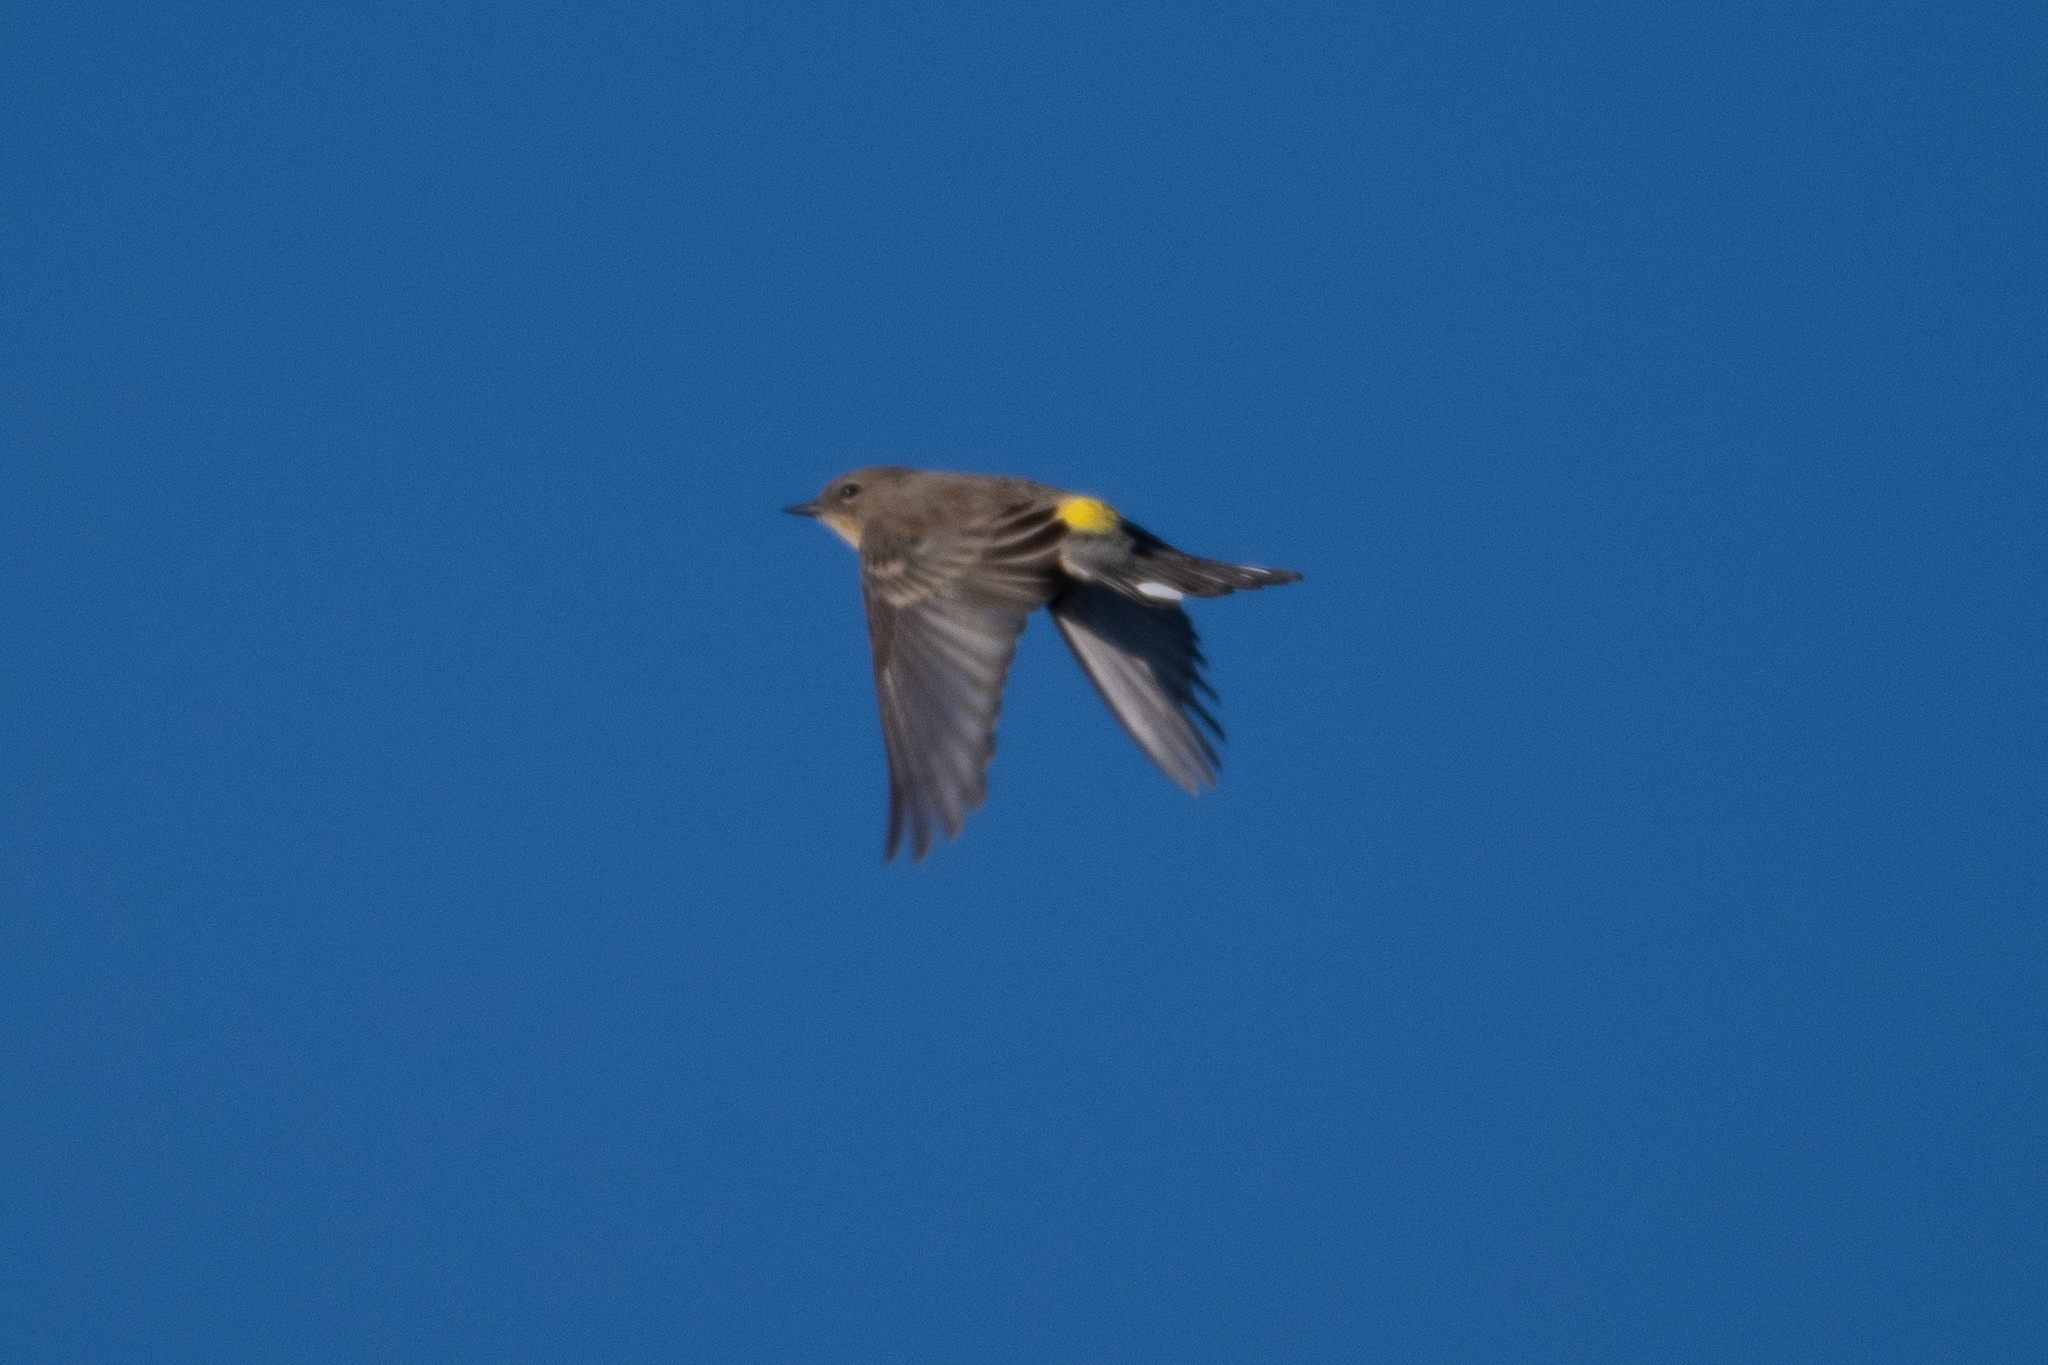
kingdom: Animalia
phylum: Chordata
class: Aves
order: Passeriformes
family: Parulidae
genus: Setophaga
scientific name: Setophaga coronata
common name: Myrtle warbler
